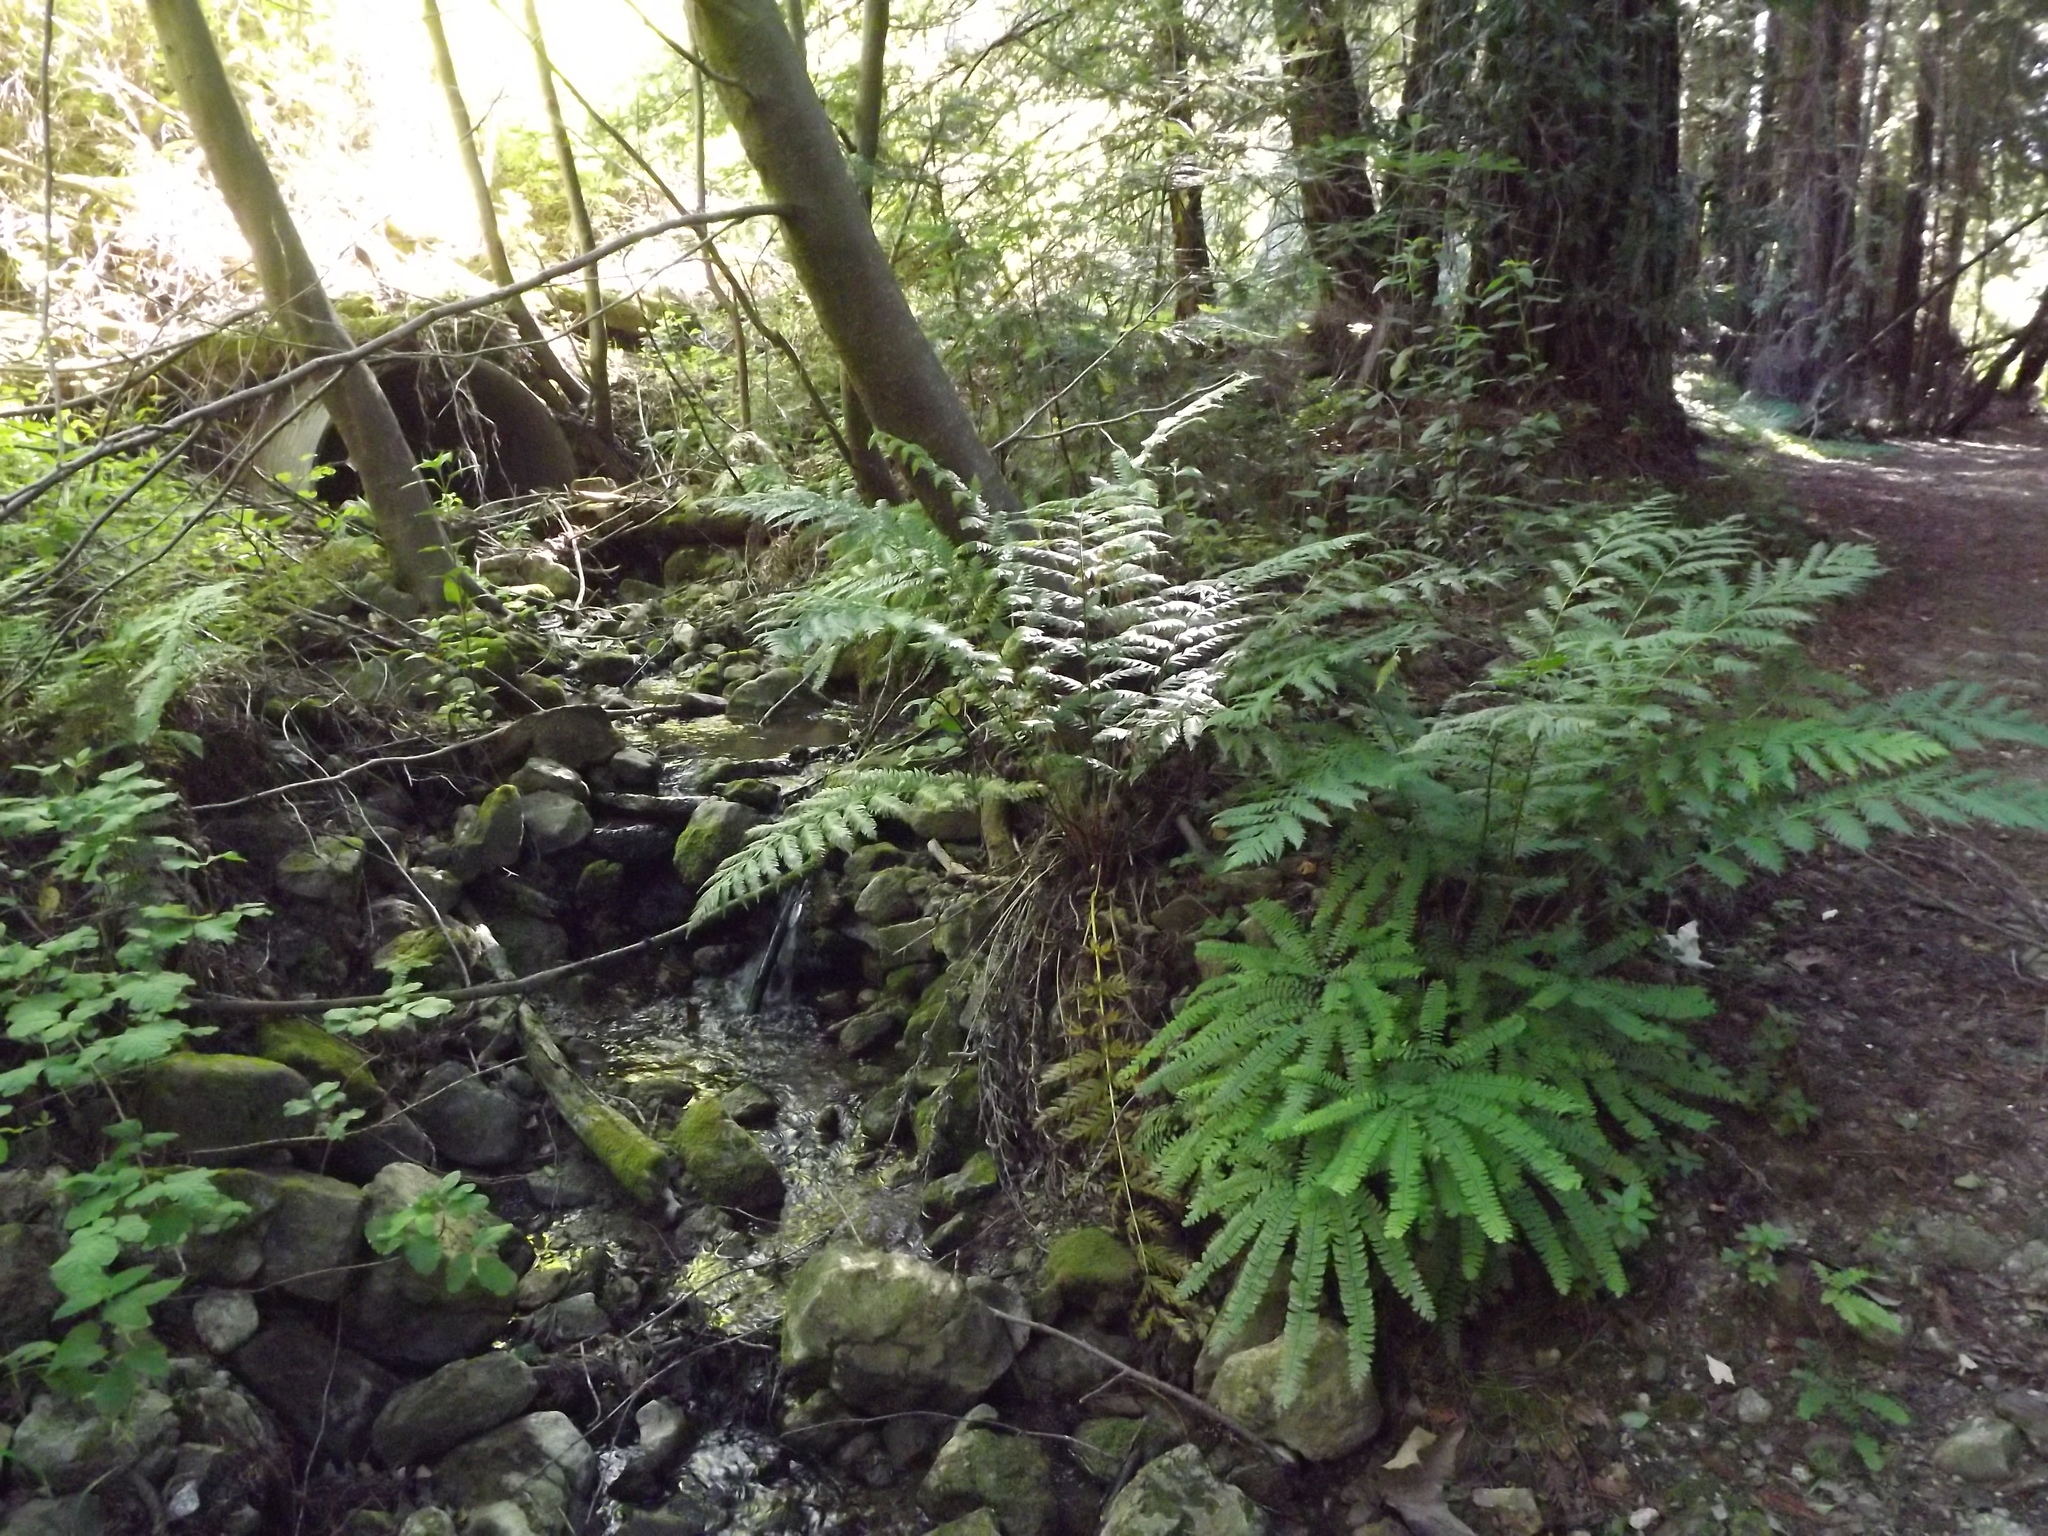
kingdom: Plantae
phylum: Tracheophyta
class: Polypodiopsida
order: Polypodiales
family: Pteridaceae
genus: Adiantum
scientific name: Adiantum aleuticum
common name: Aleutian maidenhair fern
